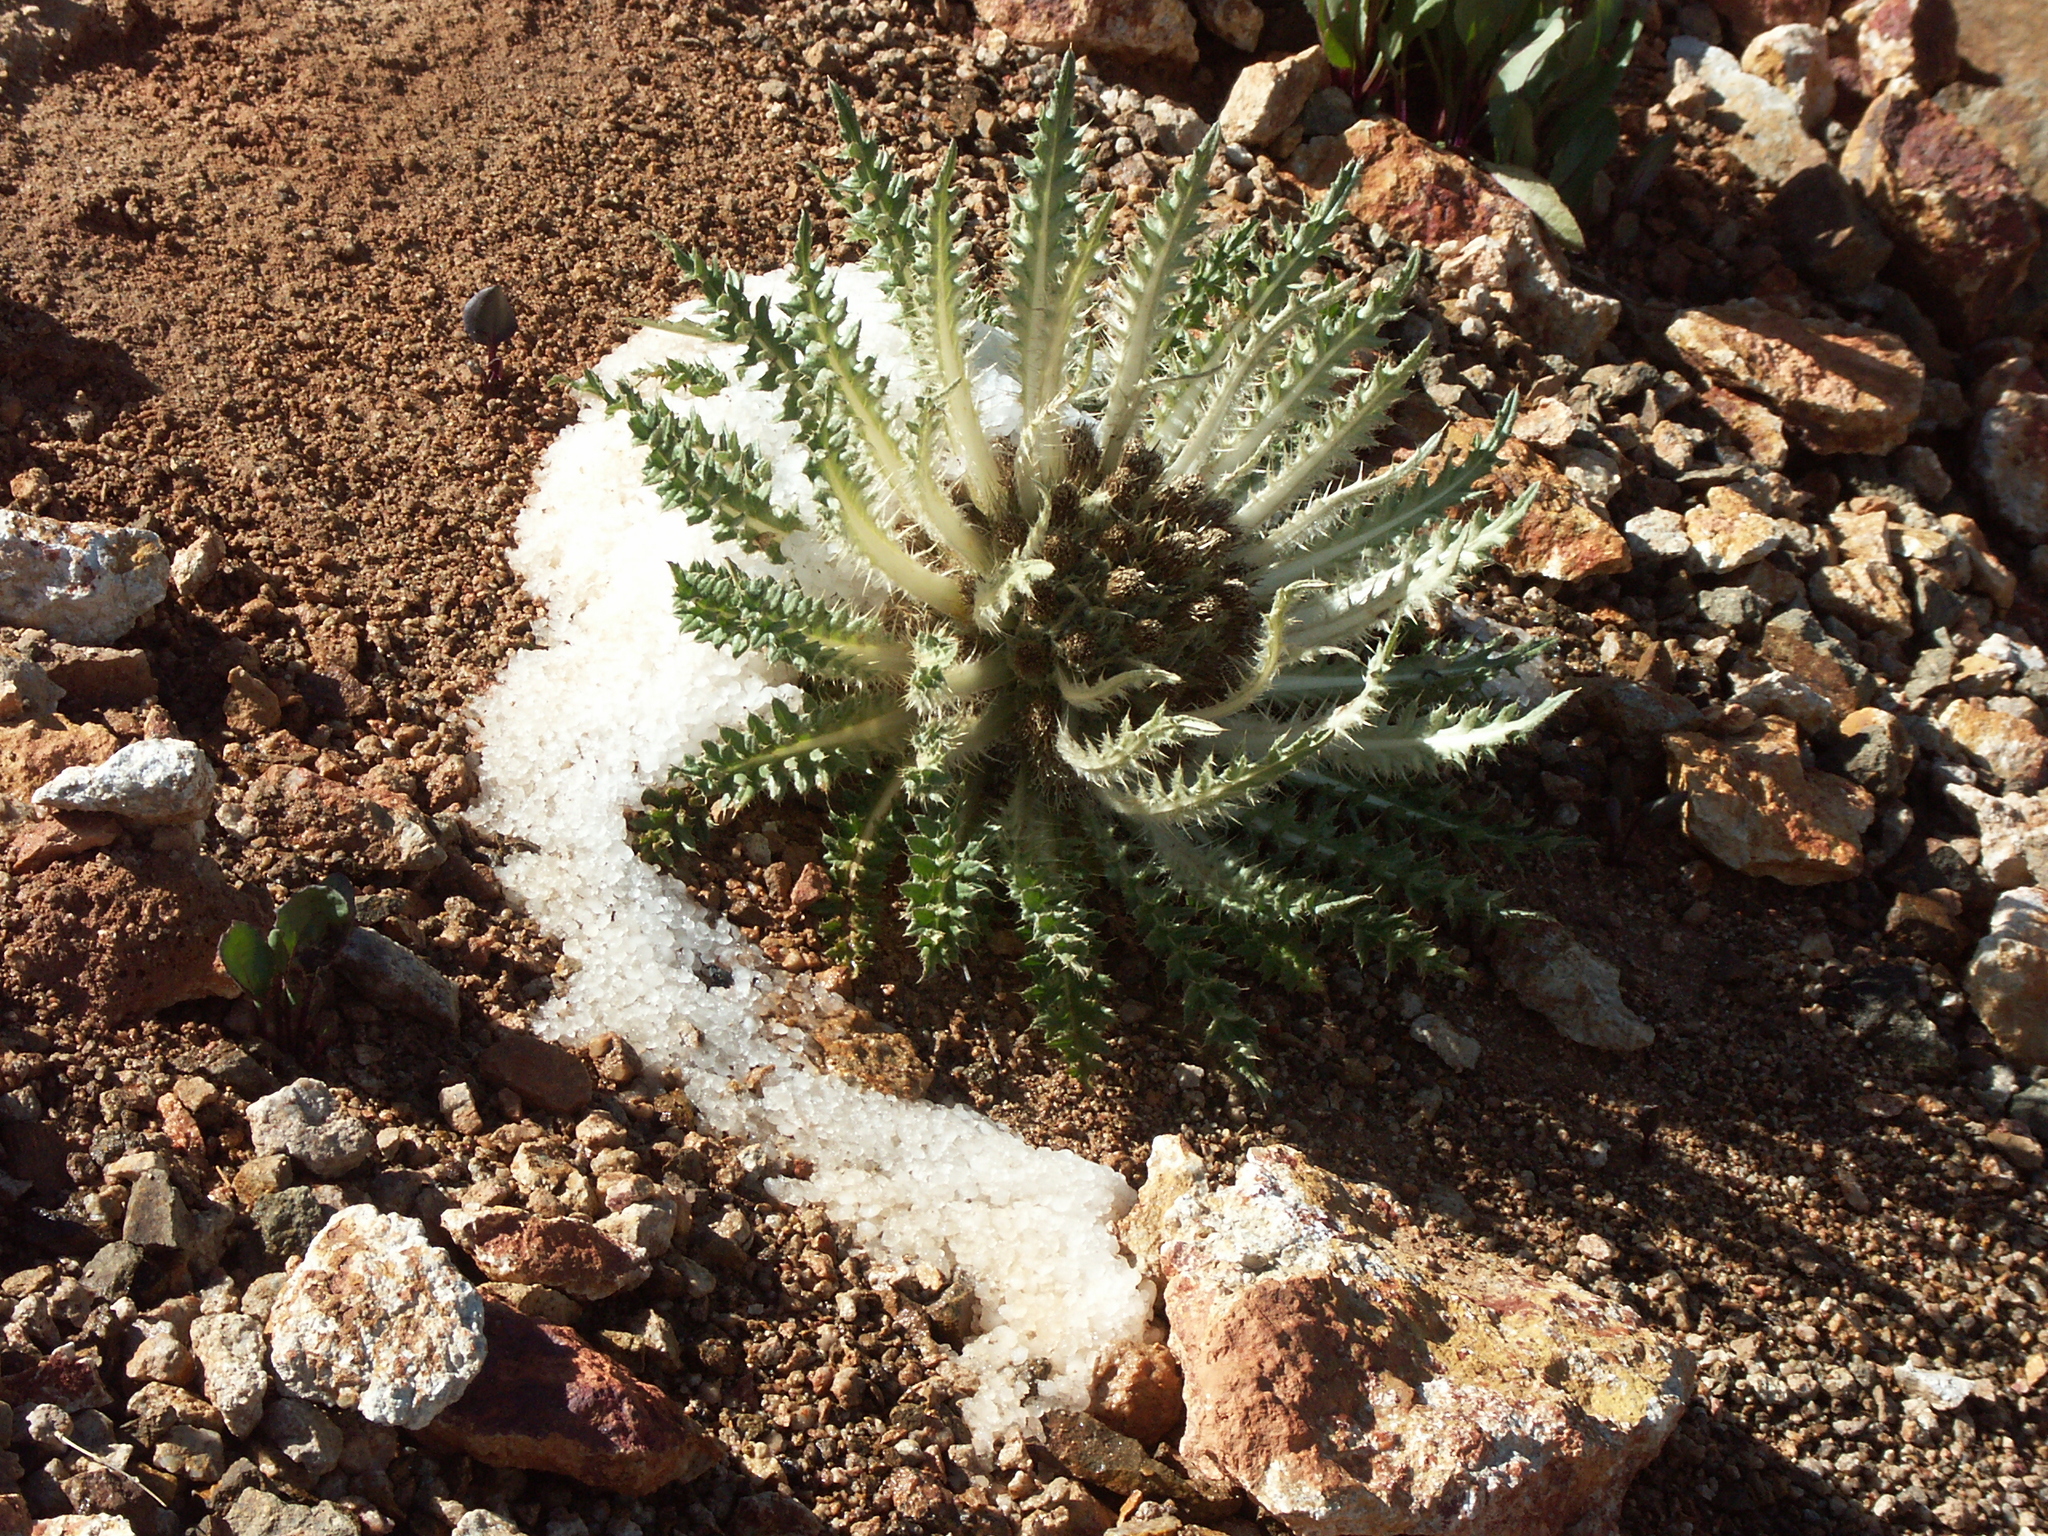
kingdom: Plantae
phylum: Tracheophyta
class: Magnoliopsida
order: Asterales
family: Asteraceae
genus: Cirsium
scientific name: Cirsium tioganum
